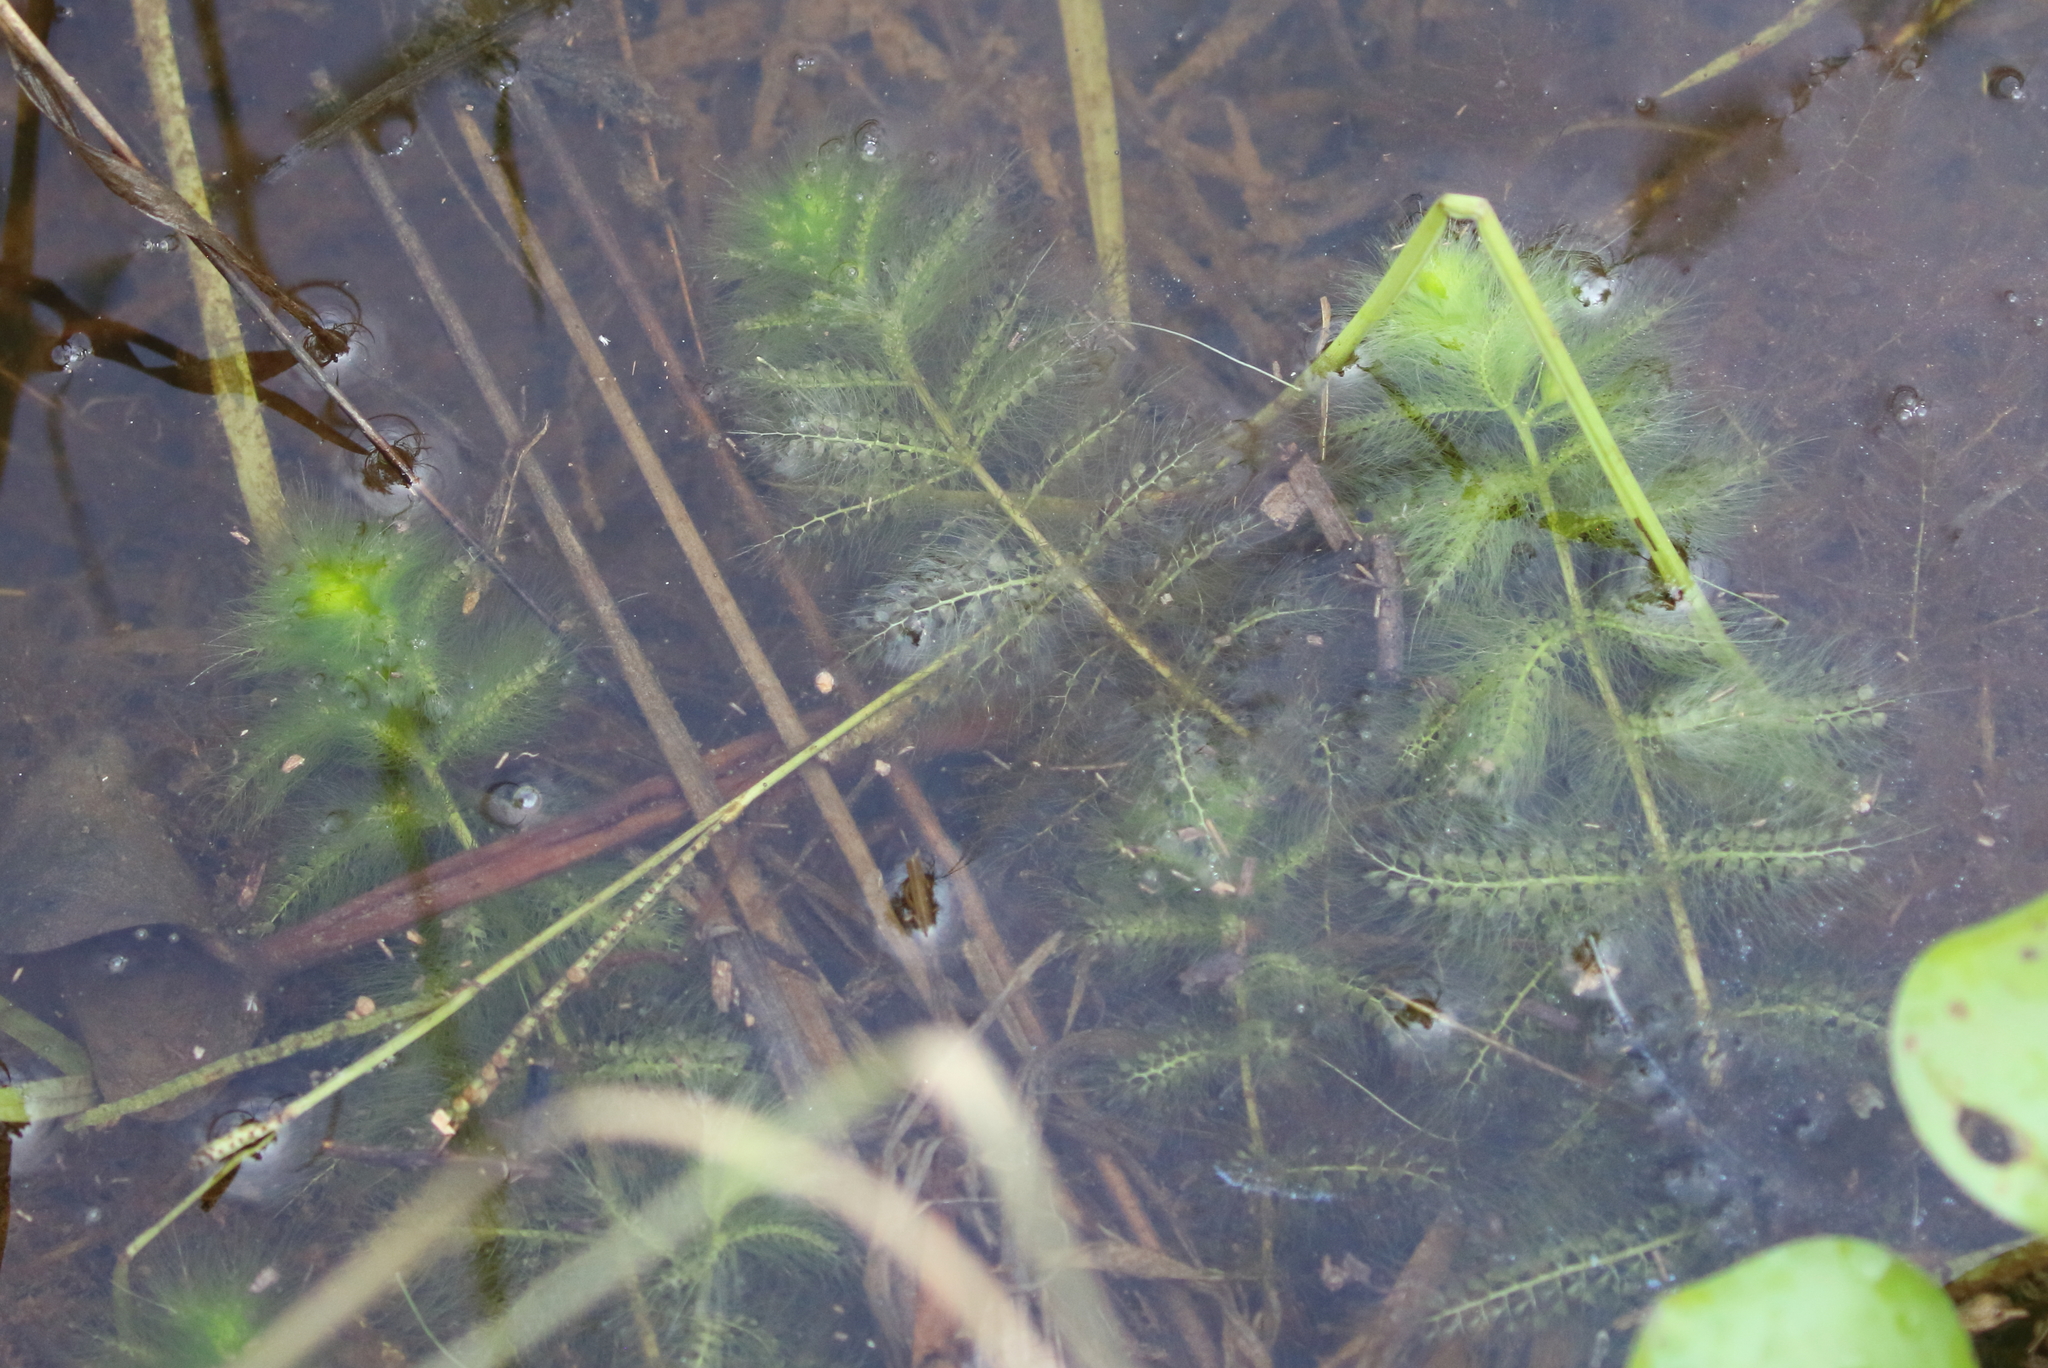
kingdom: Plantae
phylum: Tracheophyta
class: Magnoliopsida
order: Lamiales
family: Lentibulariaceae
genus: Utricularia
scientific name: Utricularia aurea
